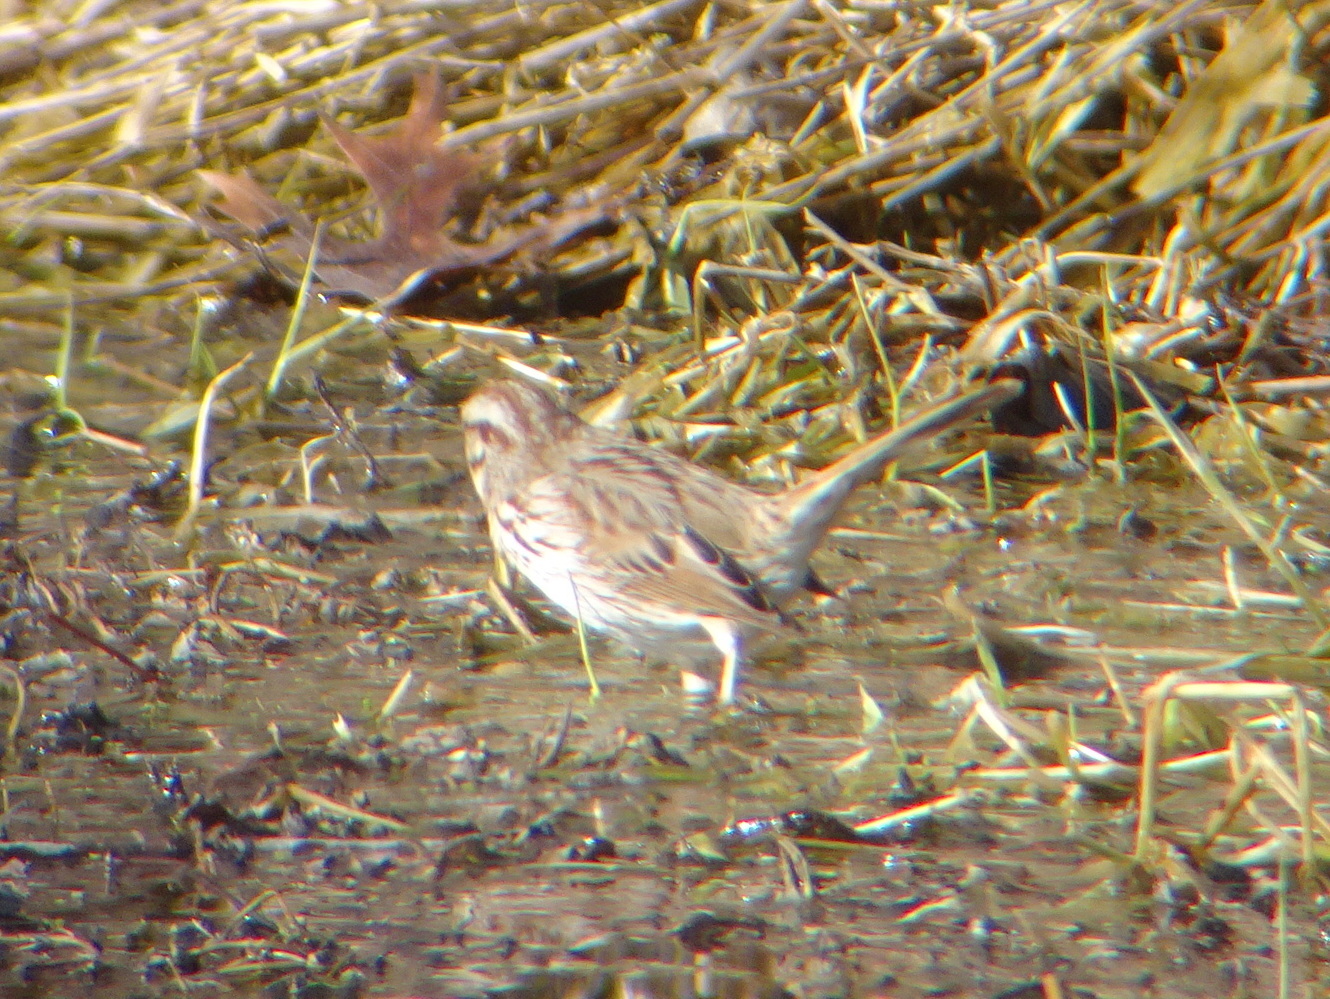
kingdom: Animalia
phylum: Chordata
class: Aves
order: Passeriformes
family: Passerellidae
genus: Melospiza
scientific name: Melospiza melodia
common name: Song sparrow
